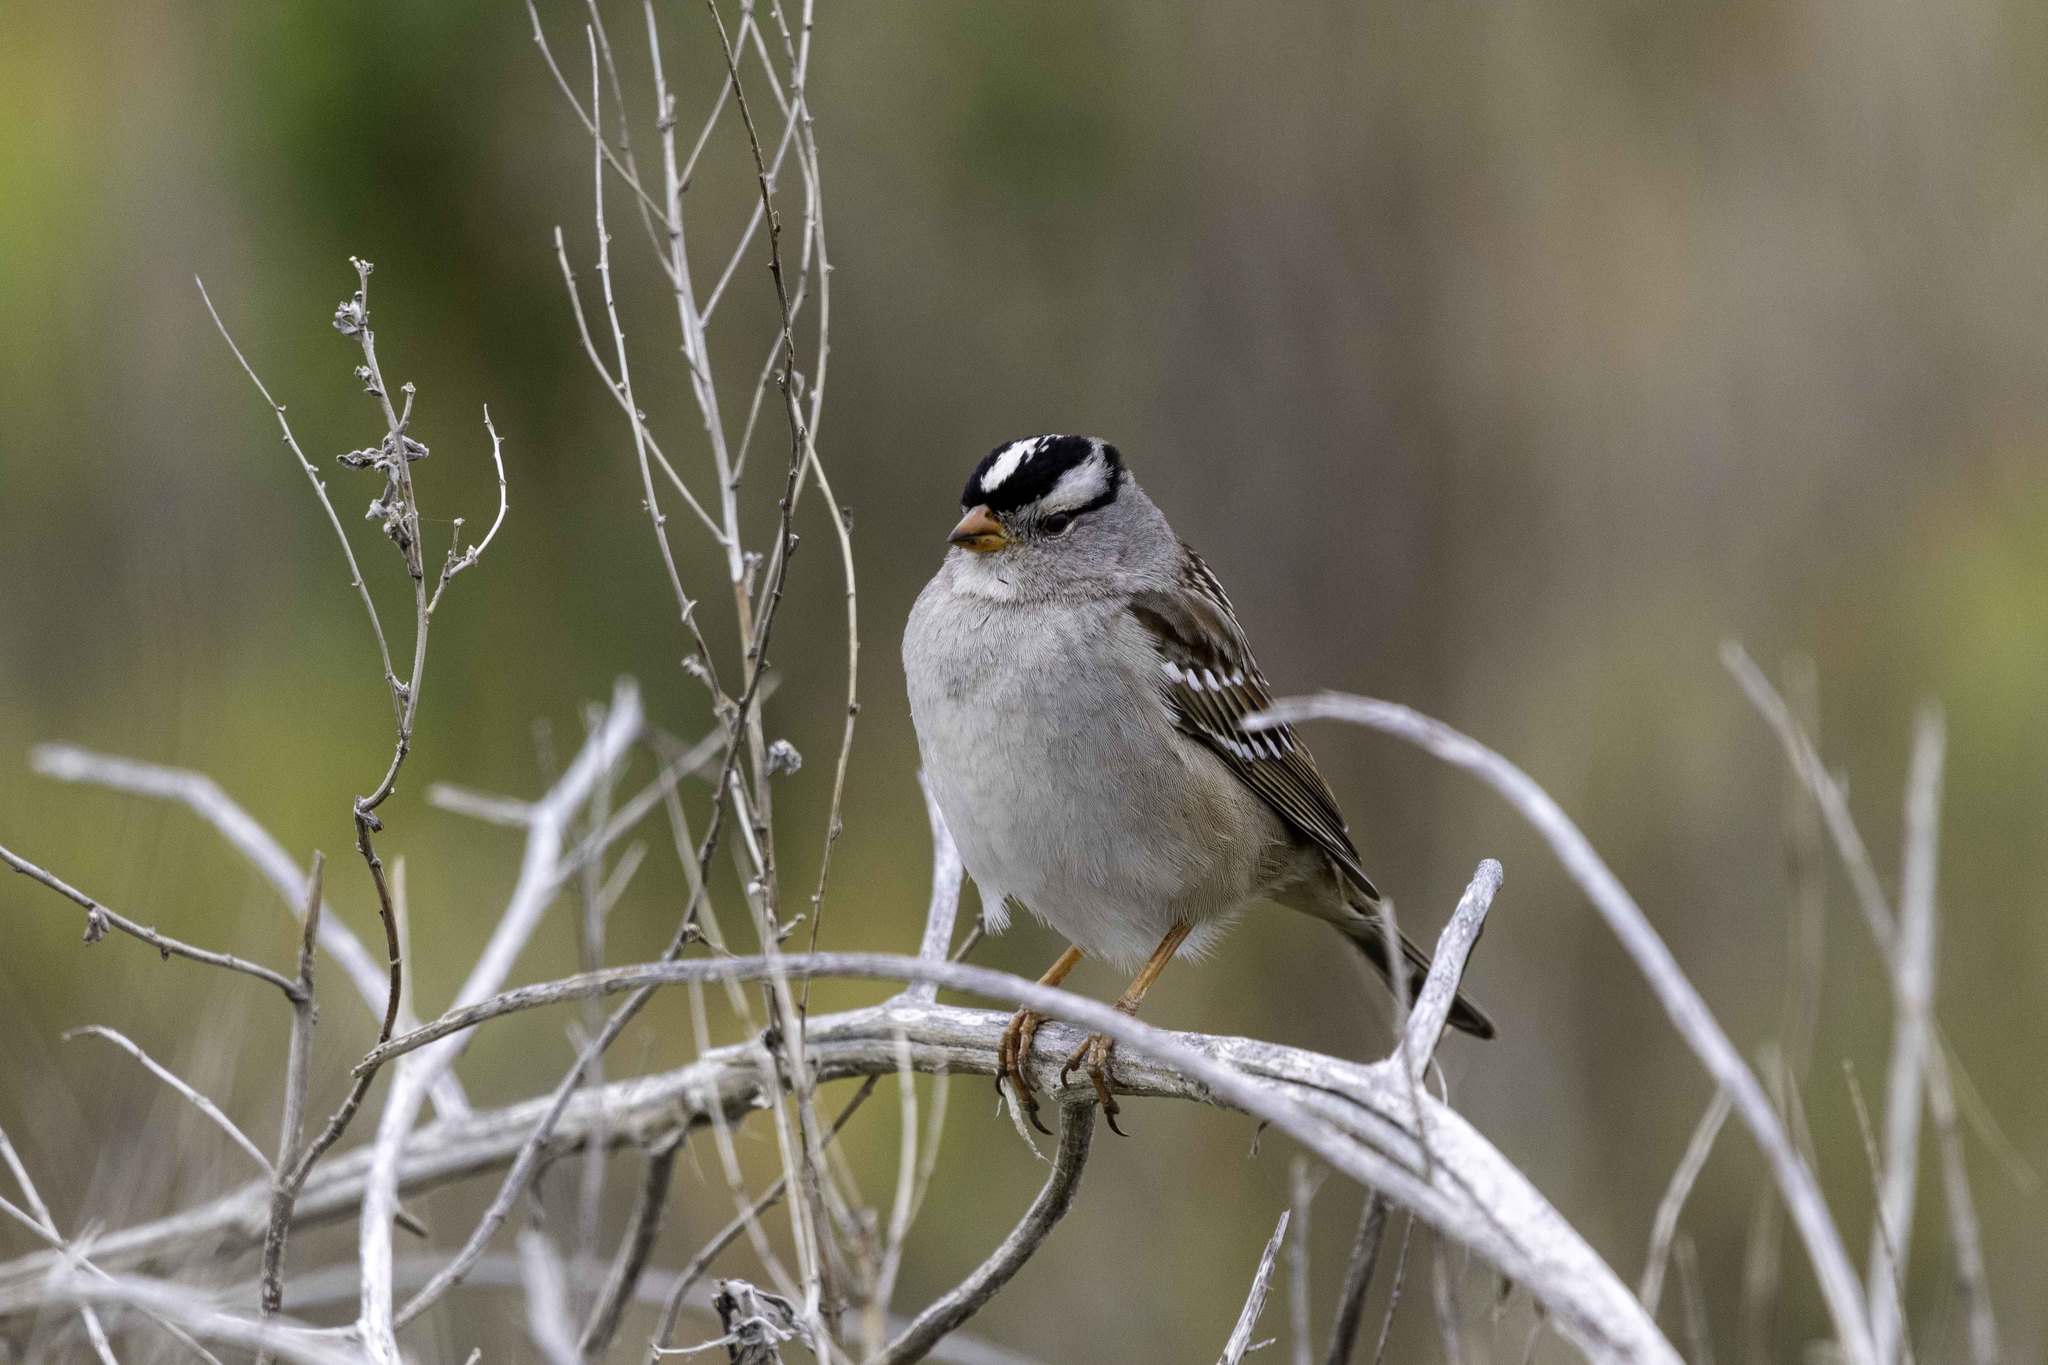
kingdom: Animalia
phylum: Chordata
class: Aves
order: Passeriformes
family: Passerellidae
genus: Zonotrichia
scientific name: Zonotrichia leucophrys
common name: White-crowned sparrow
